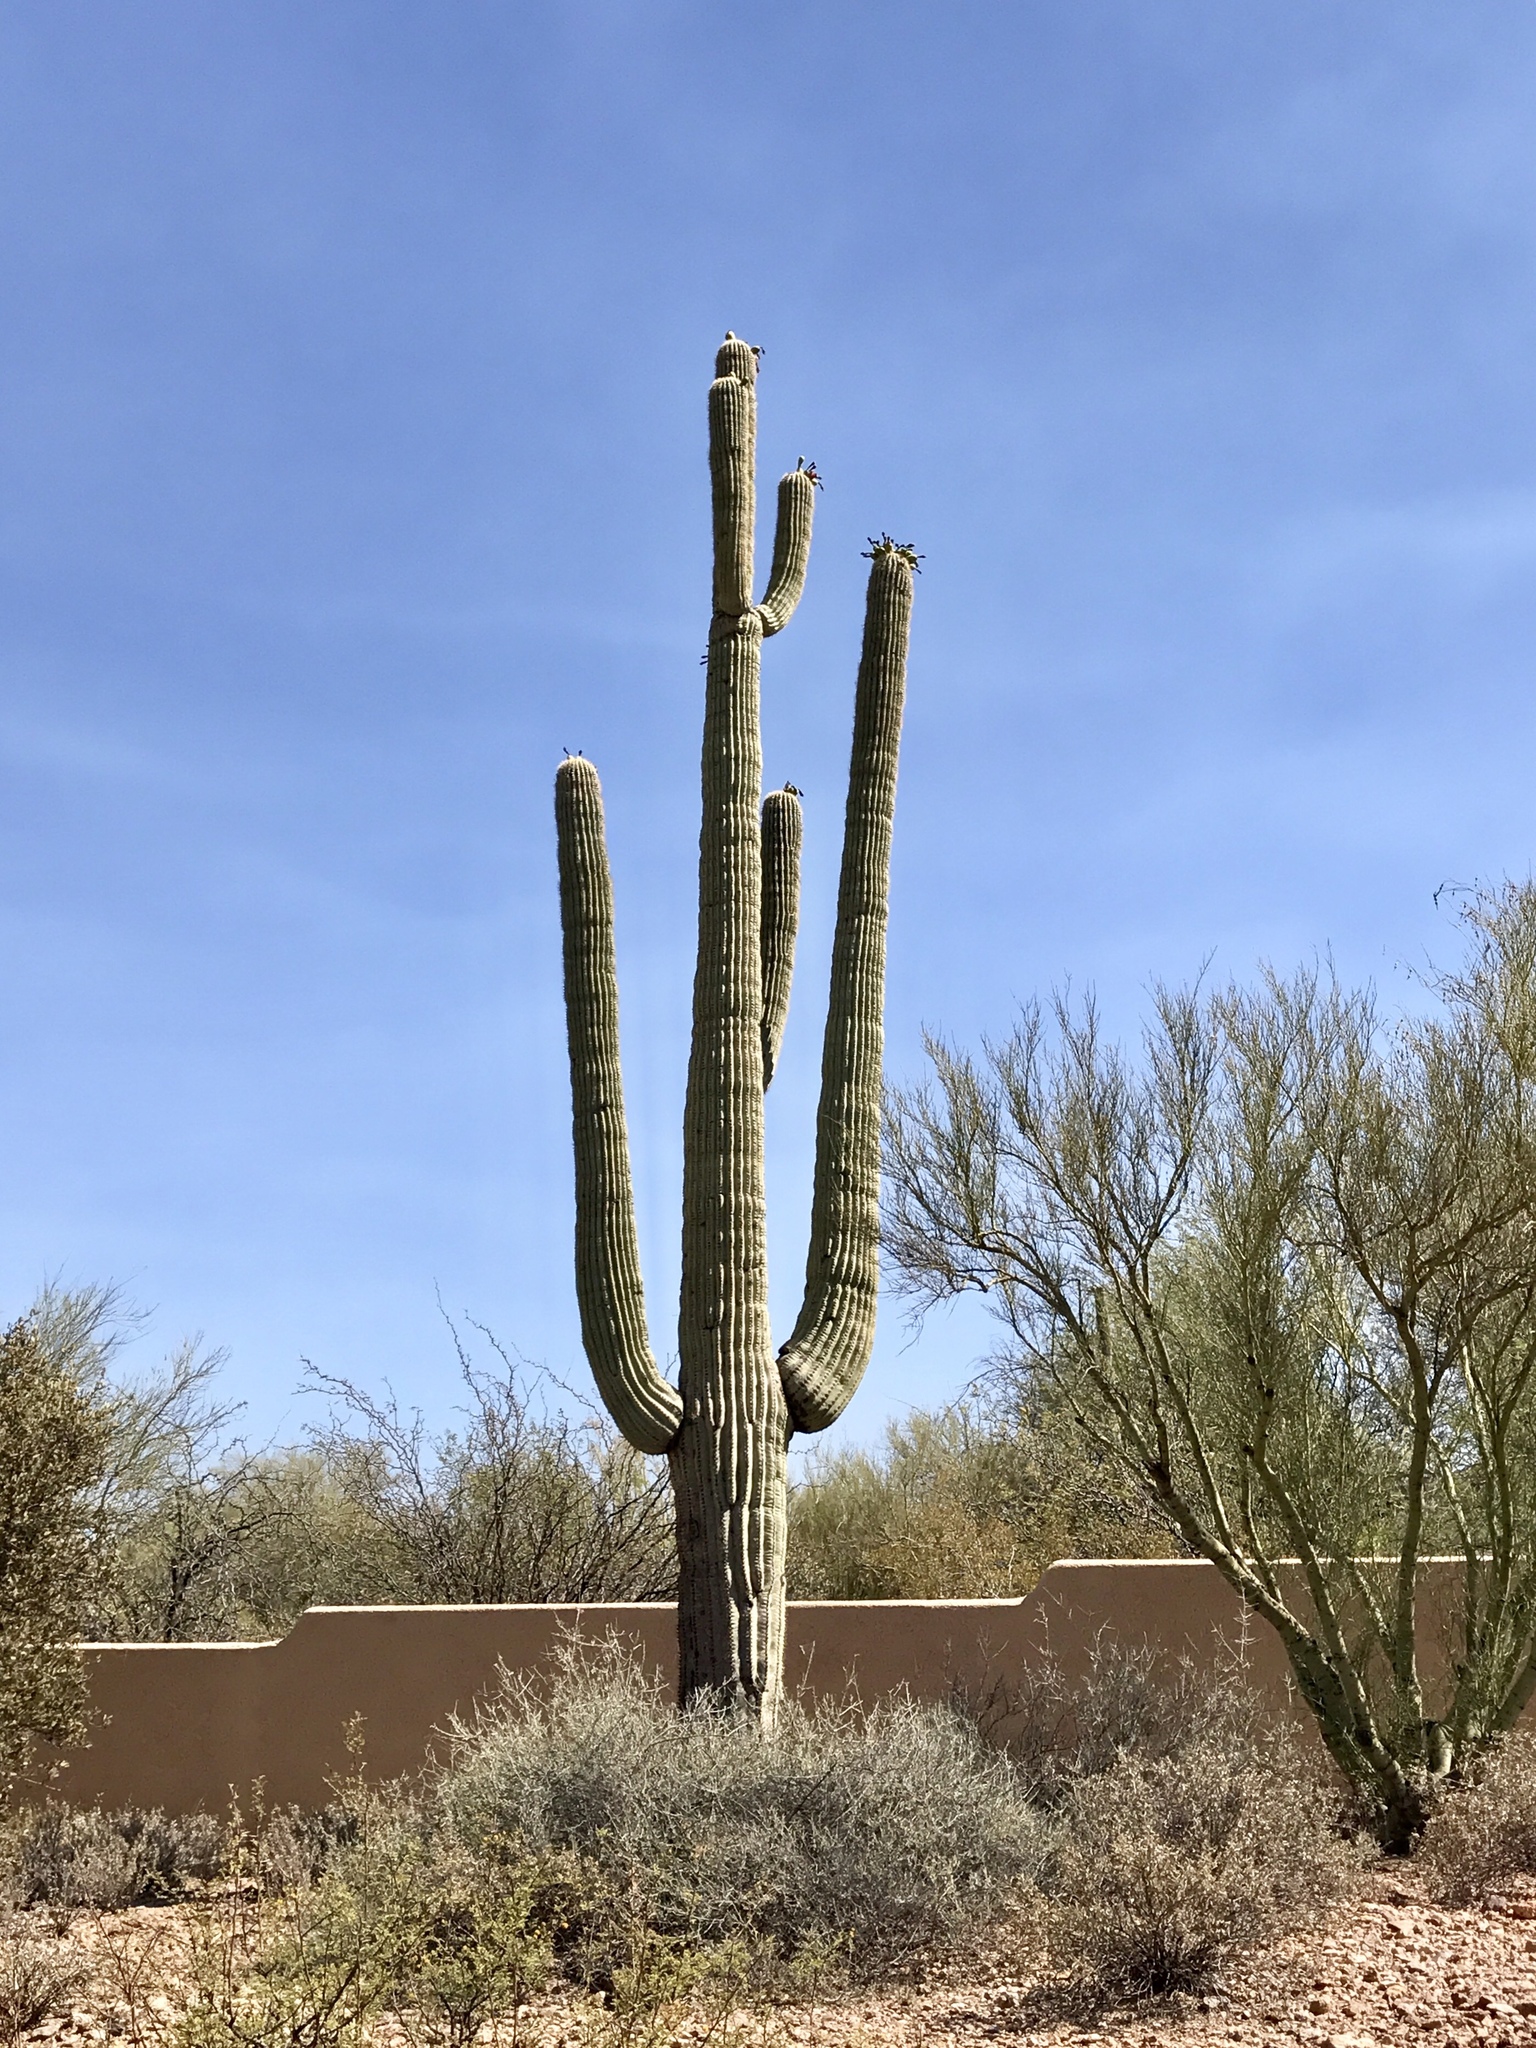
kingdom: Plantae
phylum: Tracheophyta
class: Magnoliopsida
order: Caryophyllales
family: Cactaceae
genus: Carnegiea
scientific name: Carnegiea gigantea
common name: Saguaro
